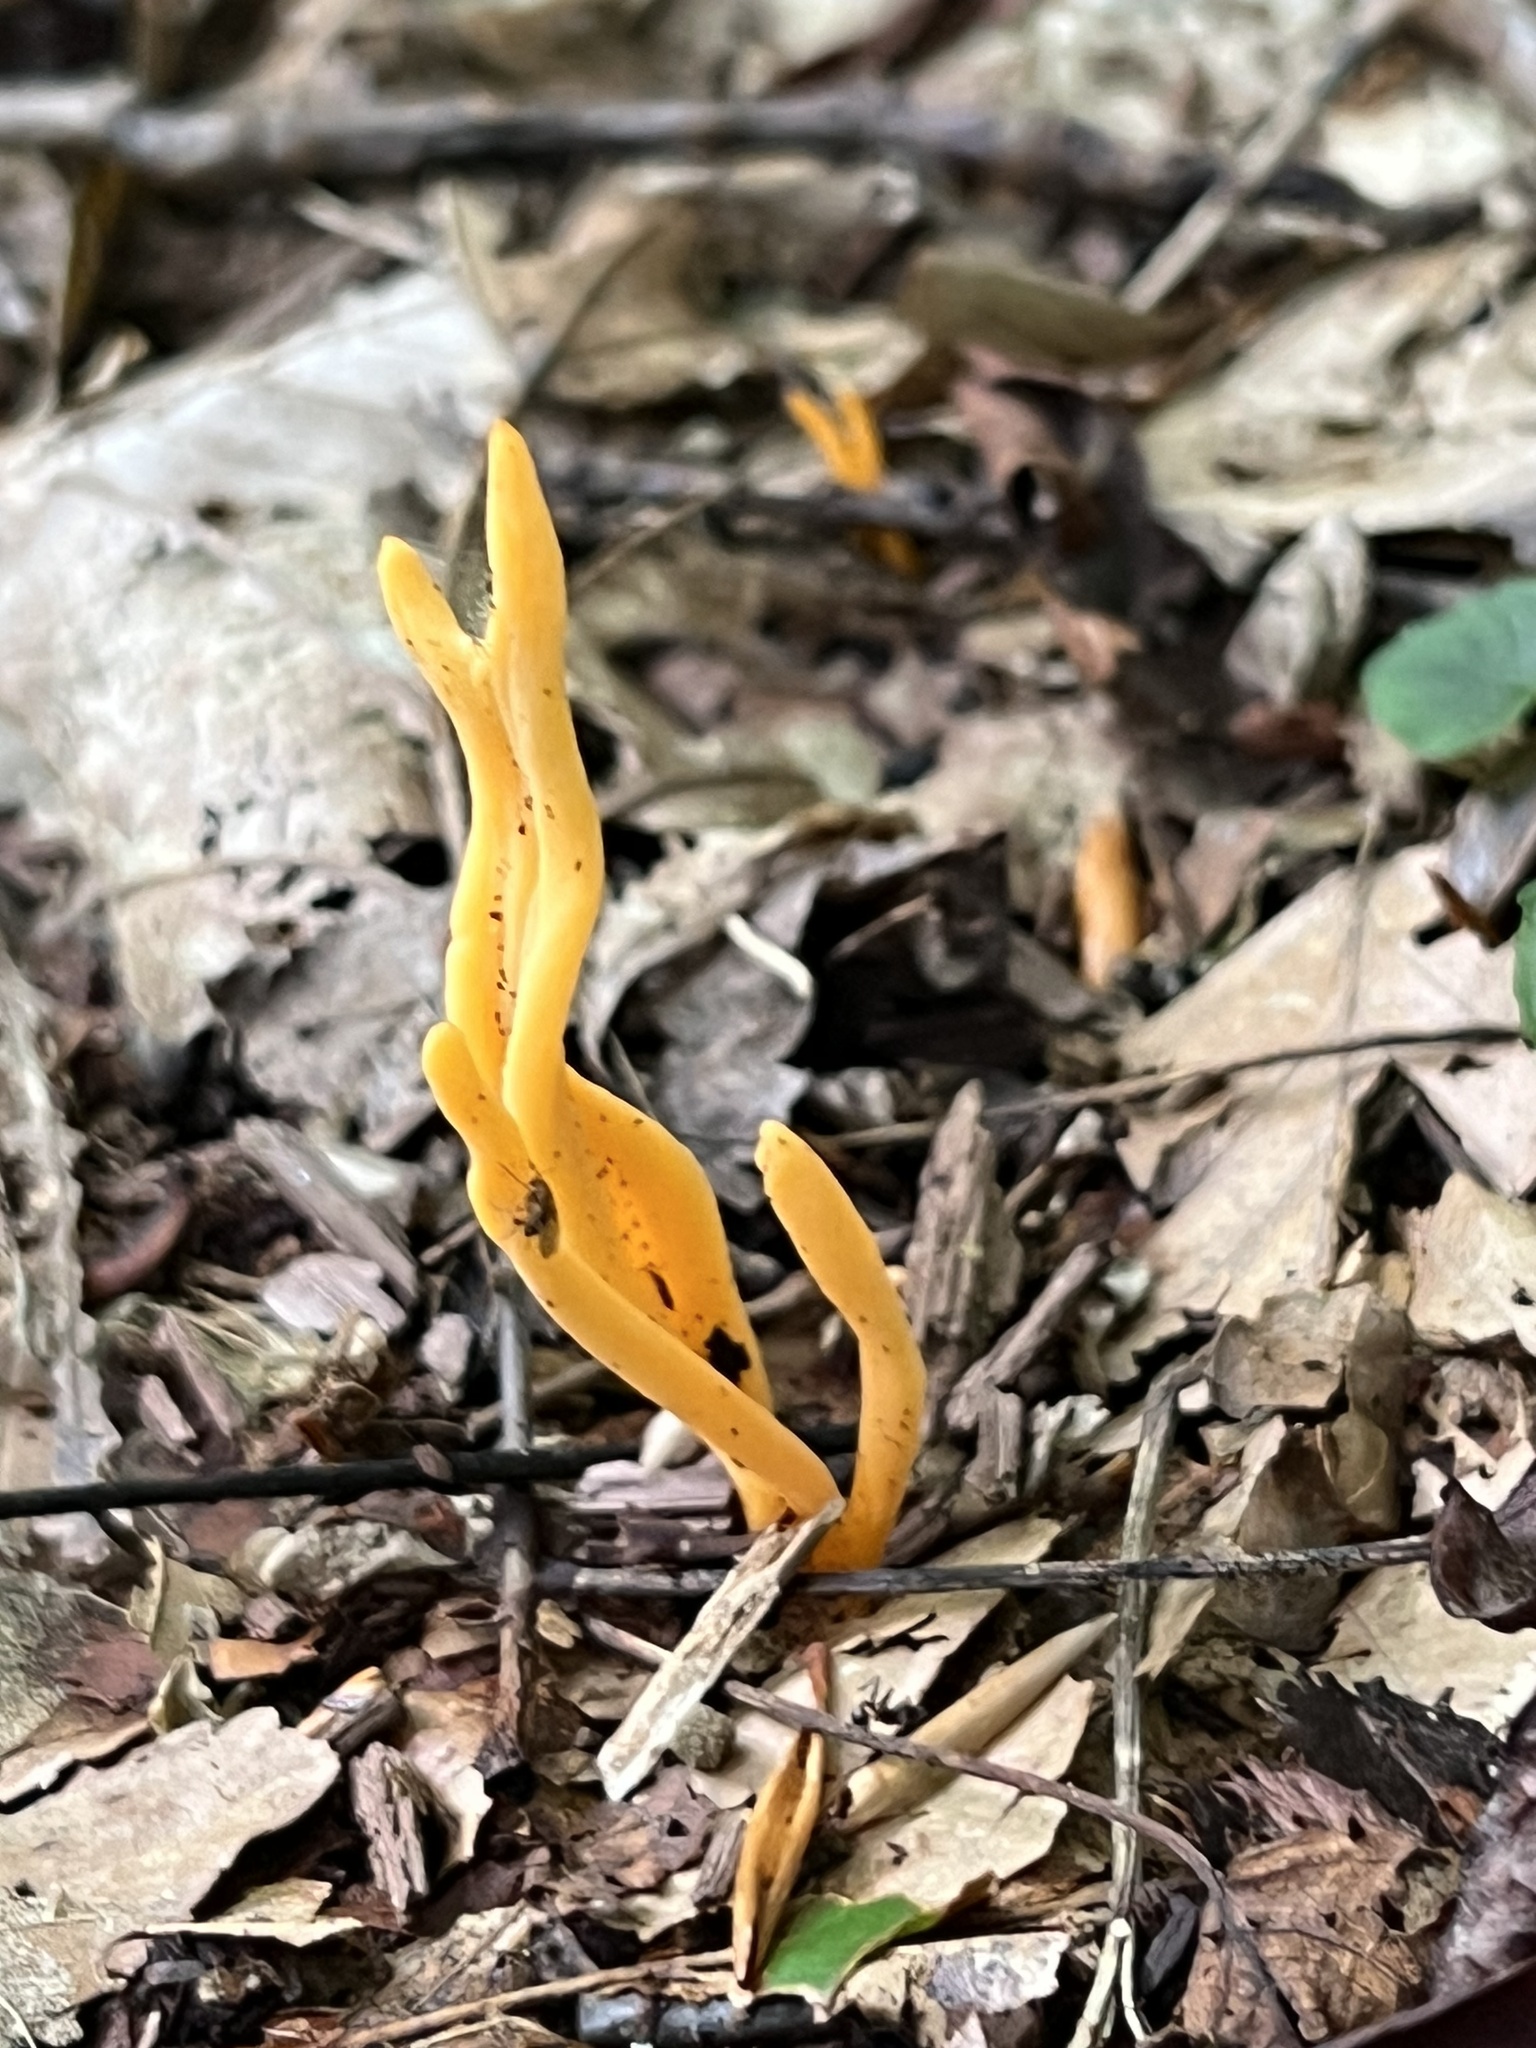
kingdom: Fungi
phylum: Basidiomycota
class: Agaricomycetes
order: Agaricales
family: Clavariaceae
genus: Clavulinopsis
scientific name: Clavulinopsis aurantiocinnabarina
